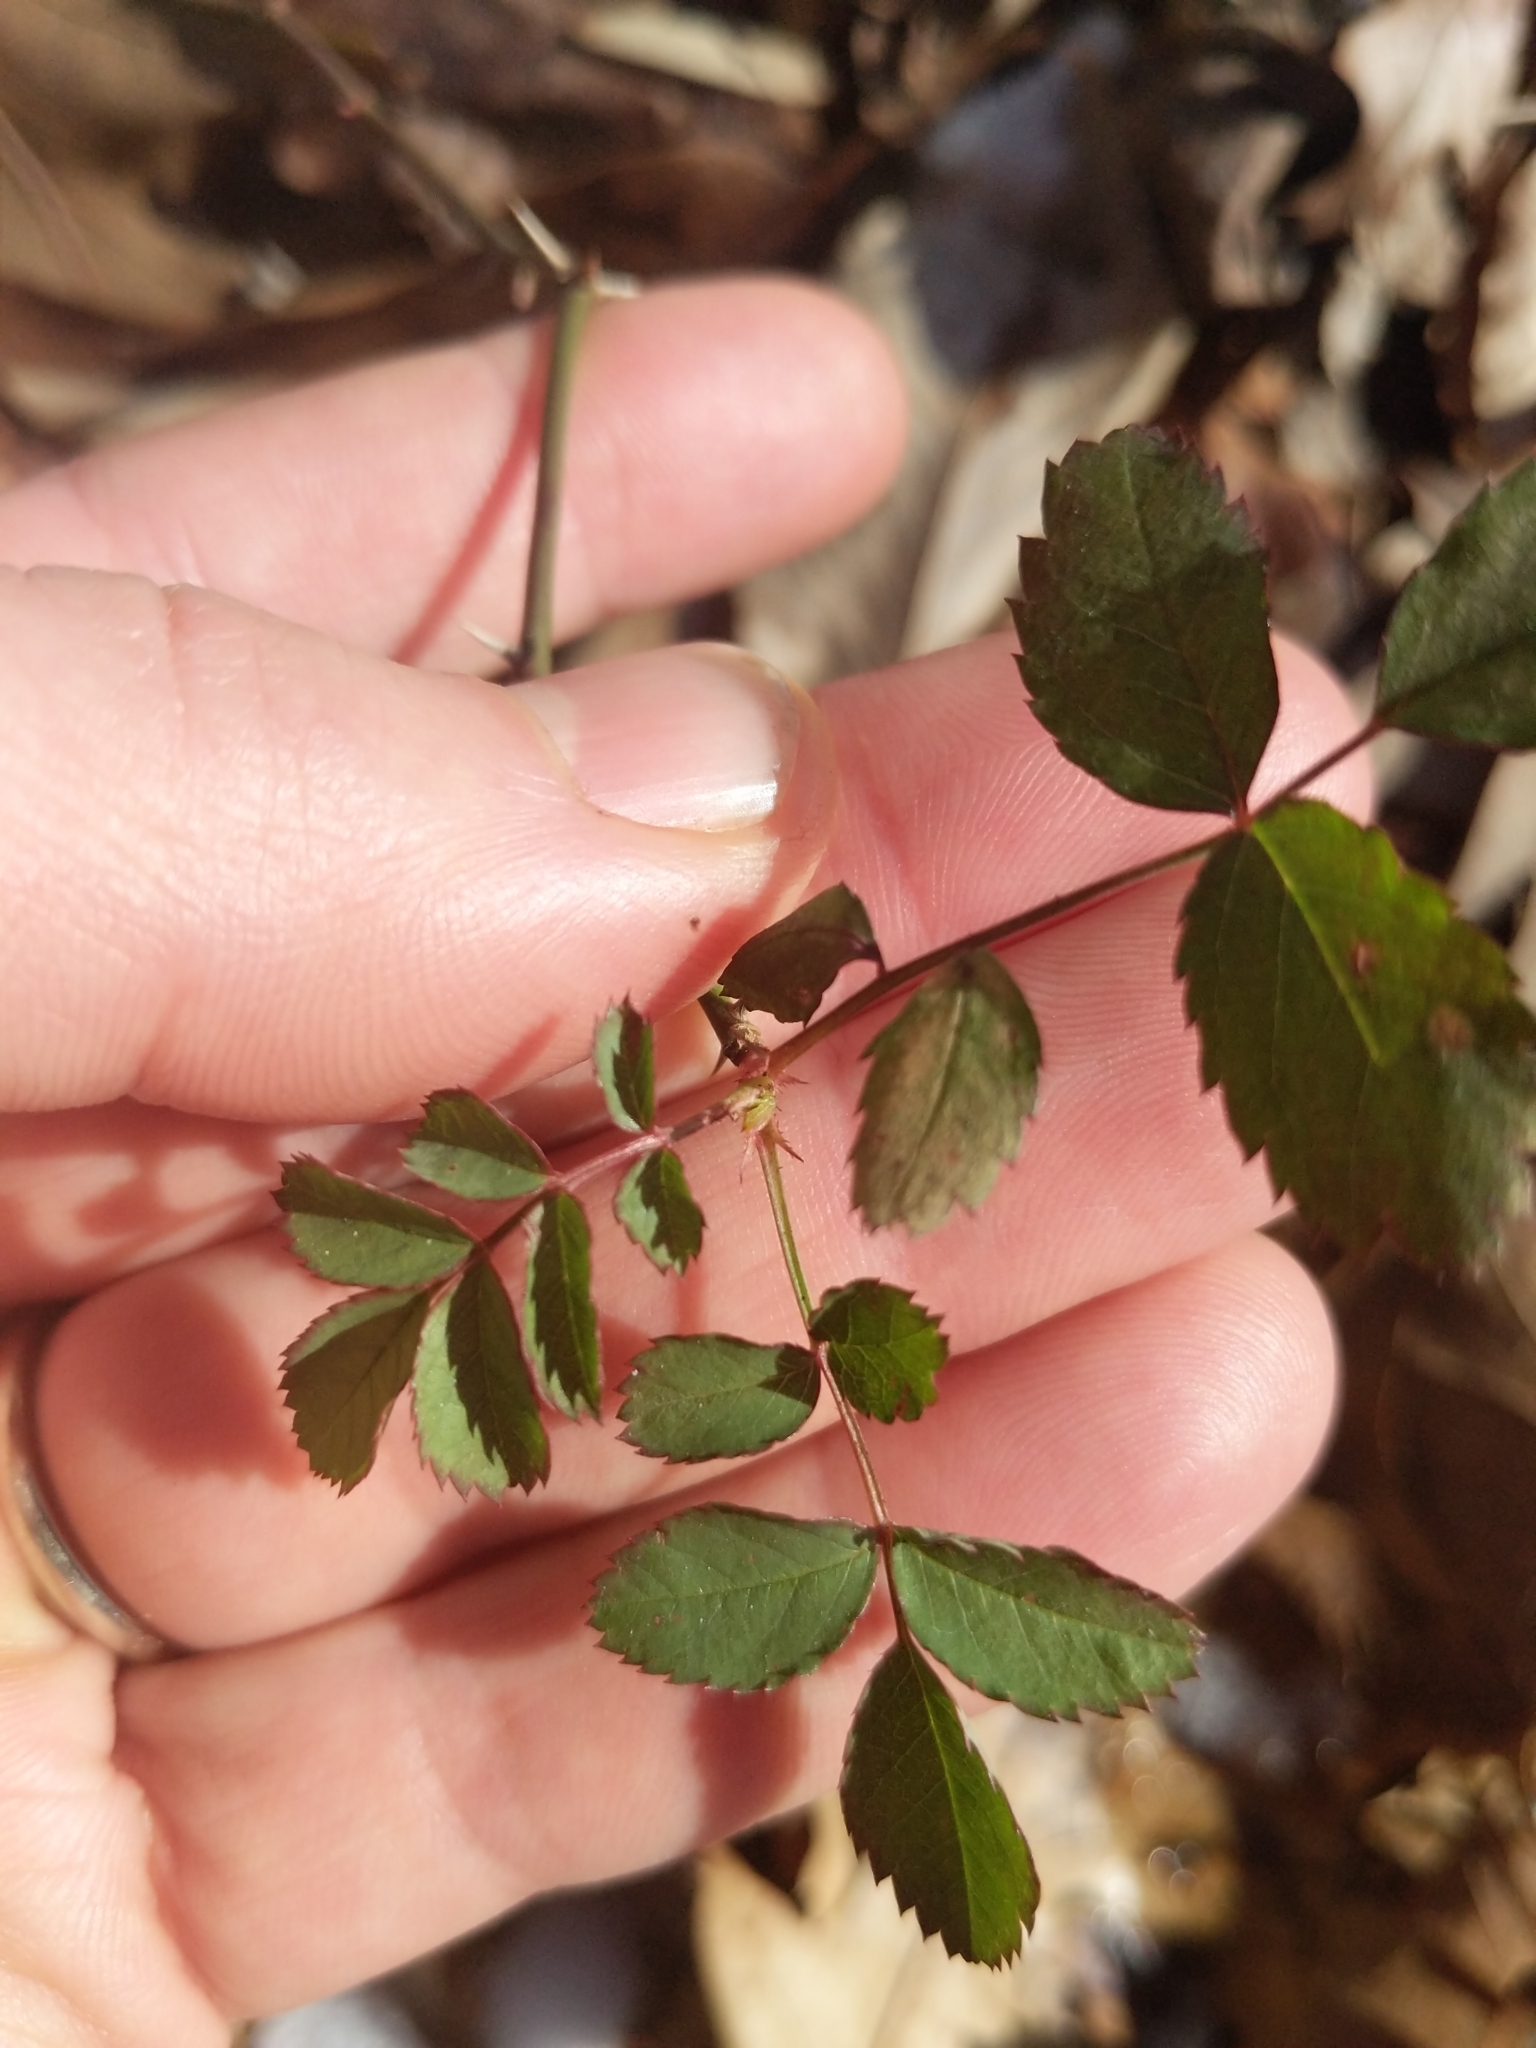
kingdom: Plantae
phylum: Tracheophyta
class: Magnoliopsida
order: Rosales
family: Rosaceae
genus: Rosa
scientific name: Rosa multiflora
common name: Multiflora rose
